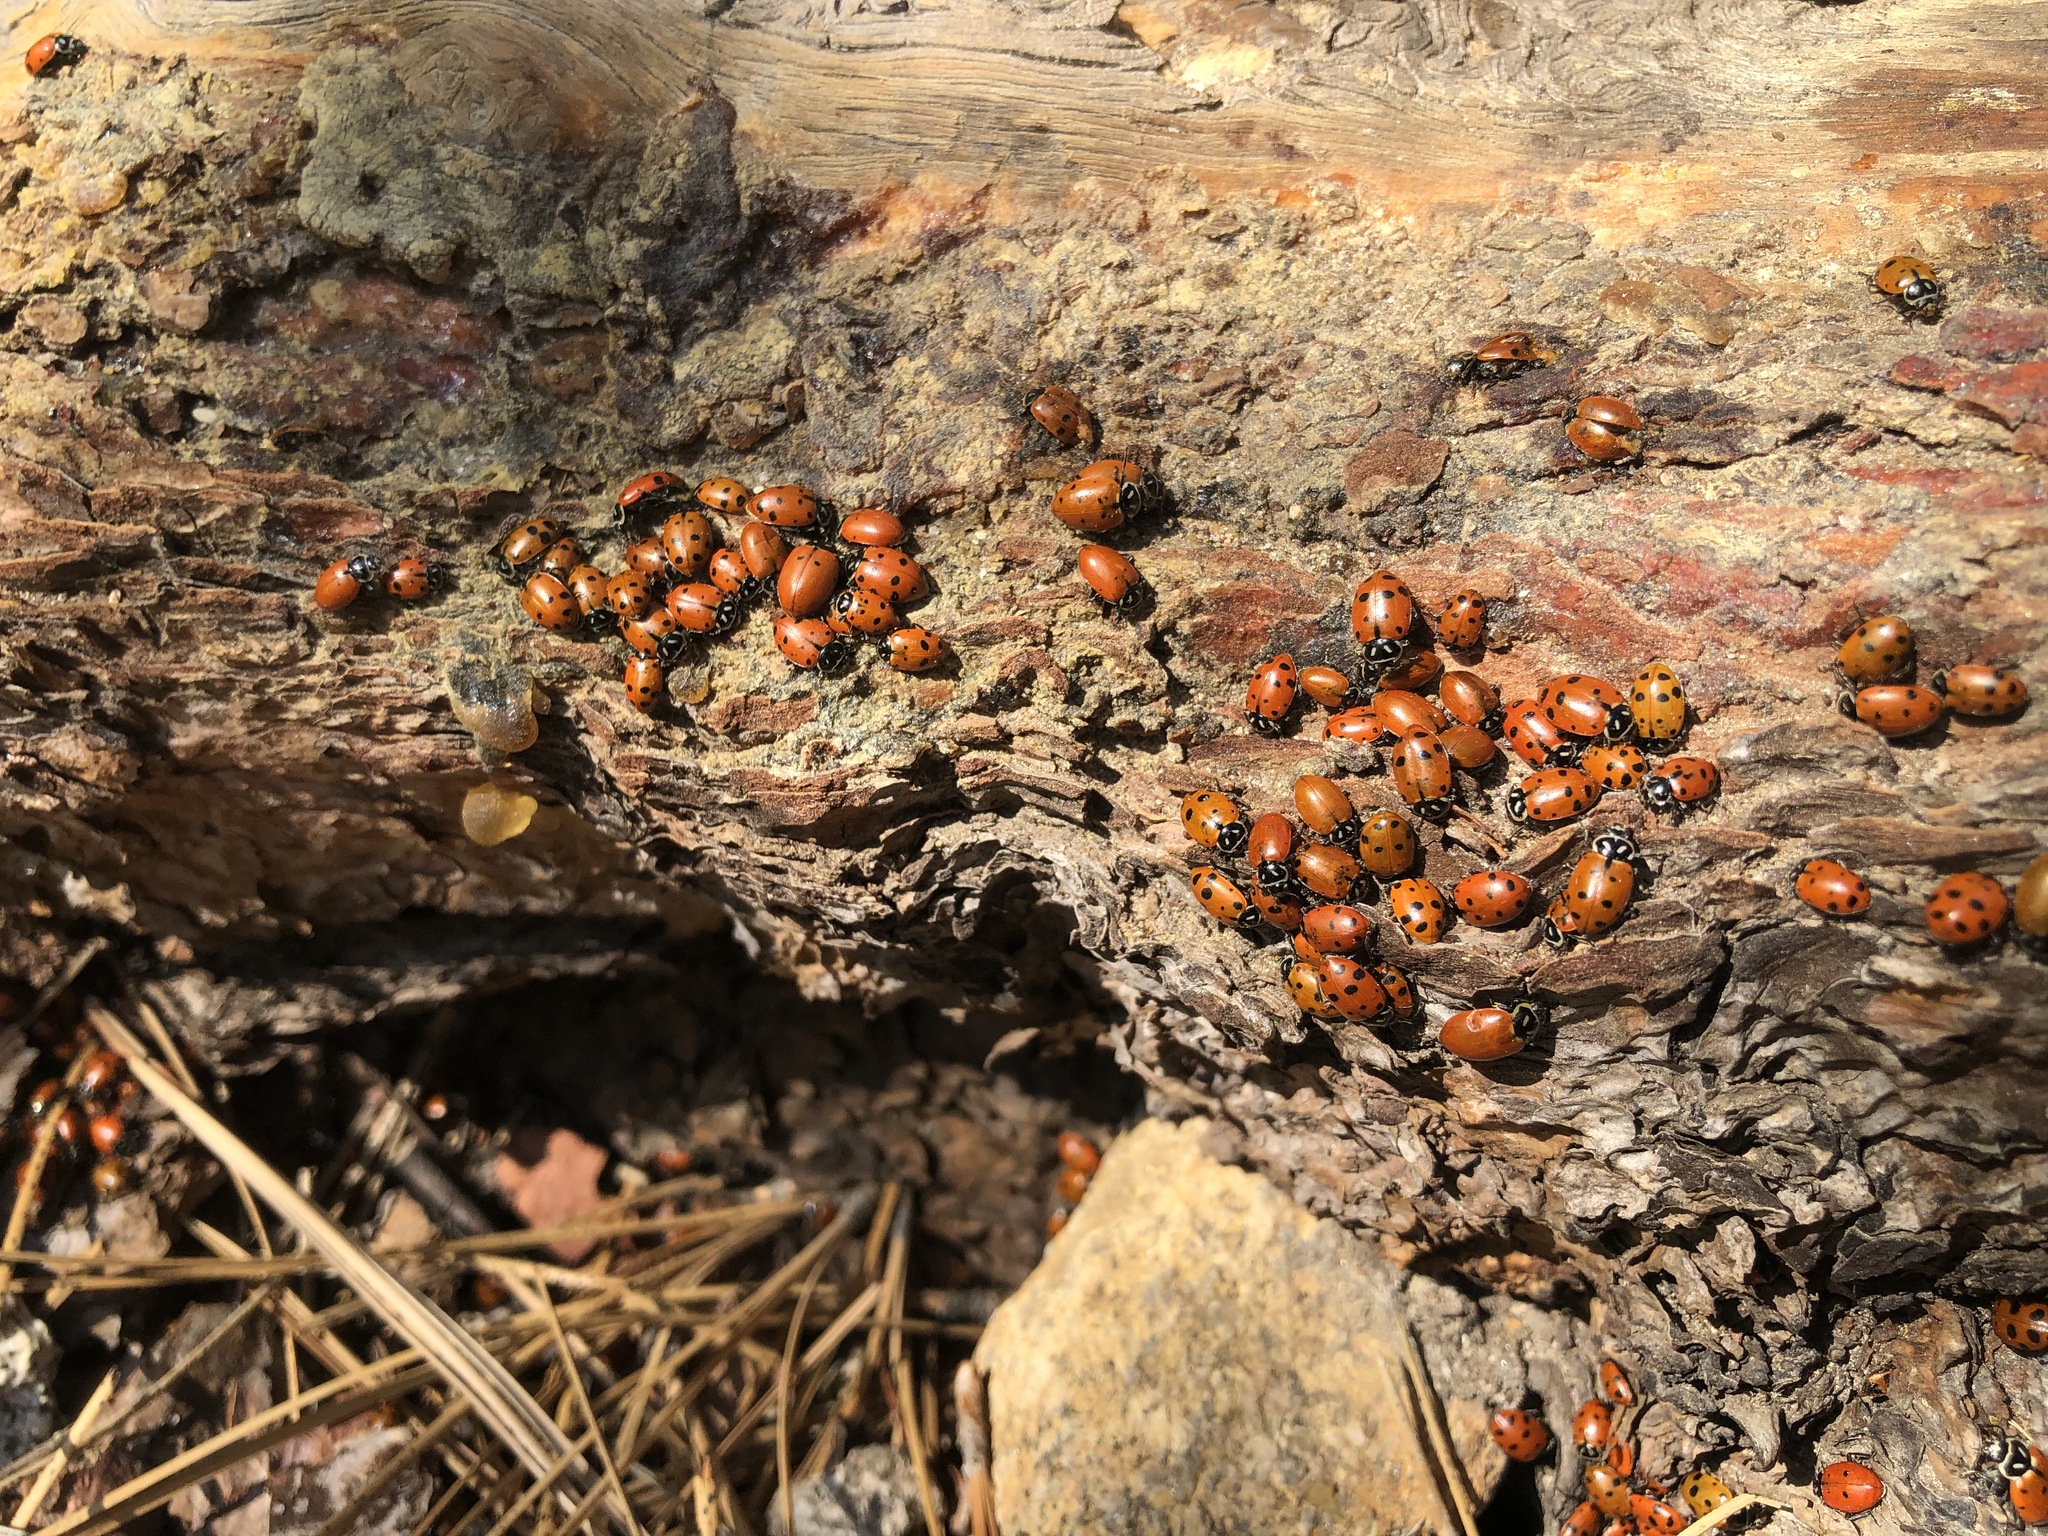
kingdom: Animalia
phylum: Arthropoda
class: Insecta
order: Coleoptera
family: Coccinellidae
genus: Hippodamia
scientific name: Hippodamia convergens
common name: Convergent lady beetle
